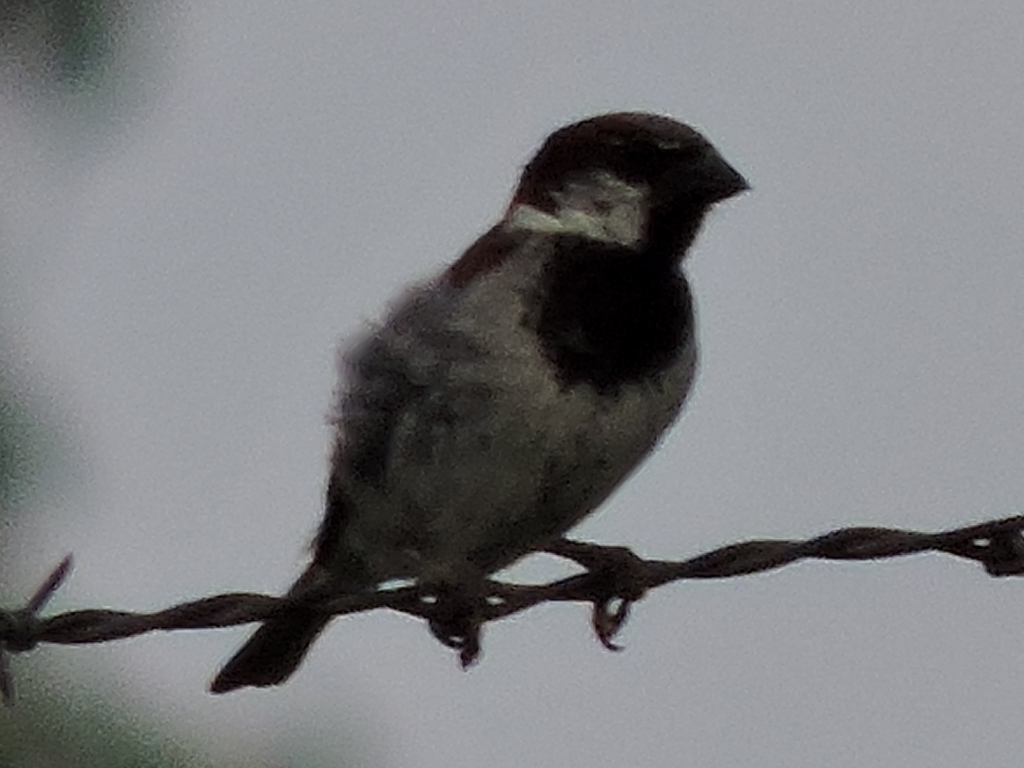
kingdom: Animalia
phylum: Chordata
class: Aves
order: Passeriformes
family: Passeridae
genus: Passer
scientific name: Passer domesticus
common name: House sparrow
